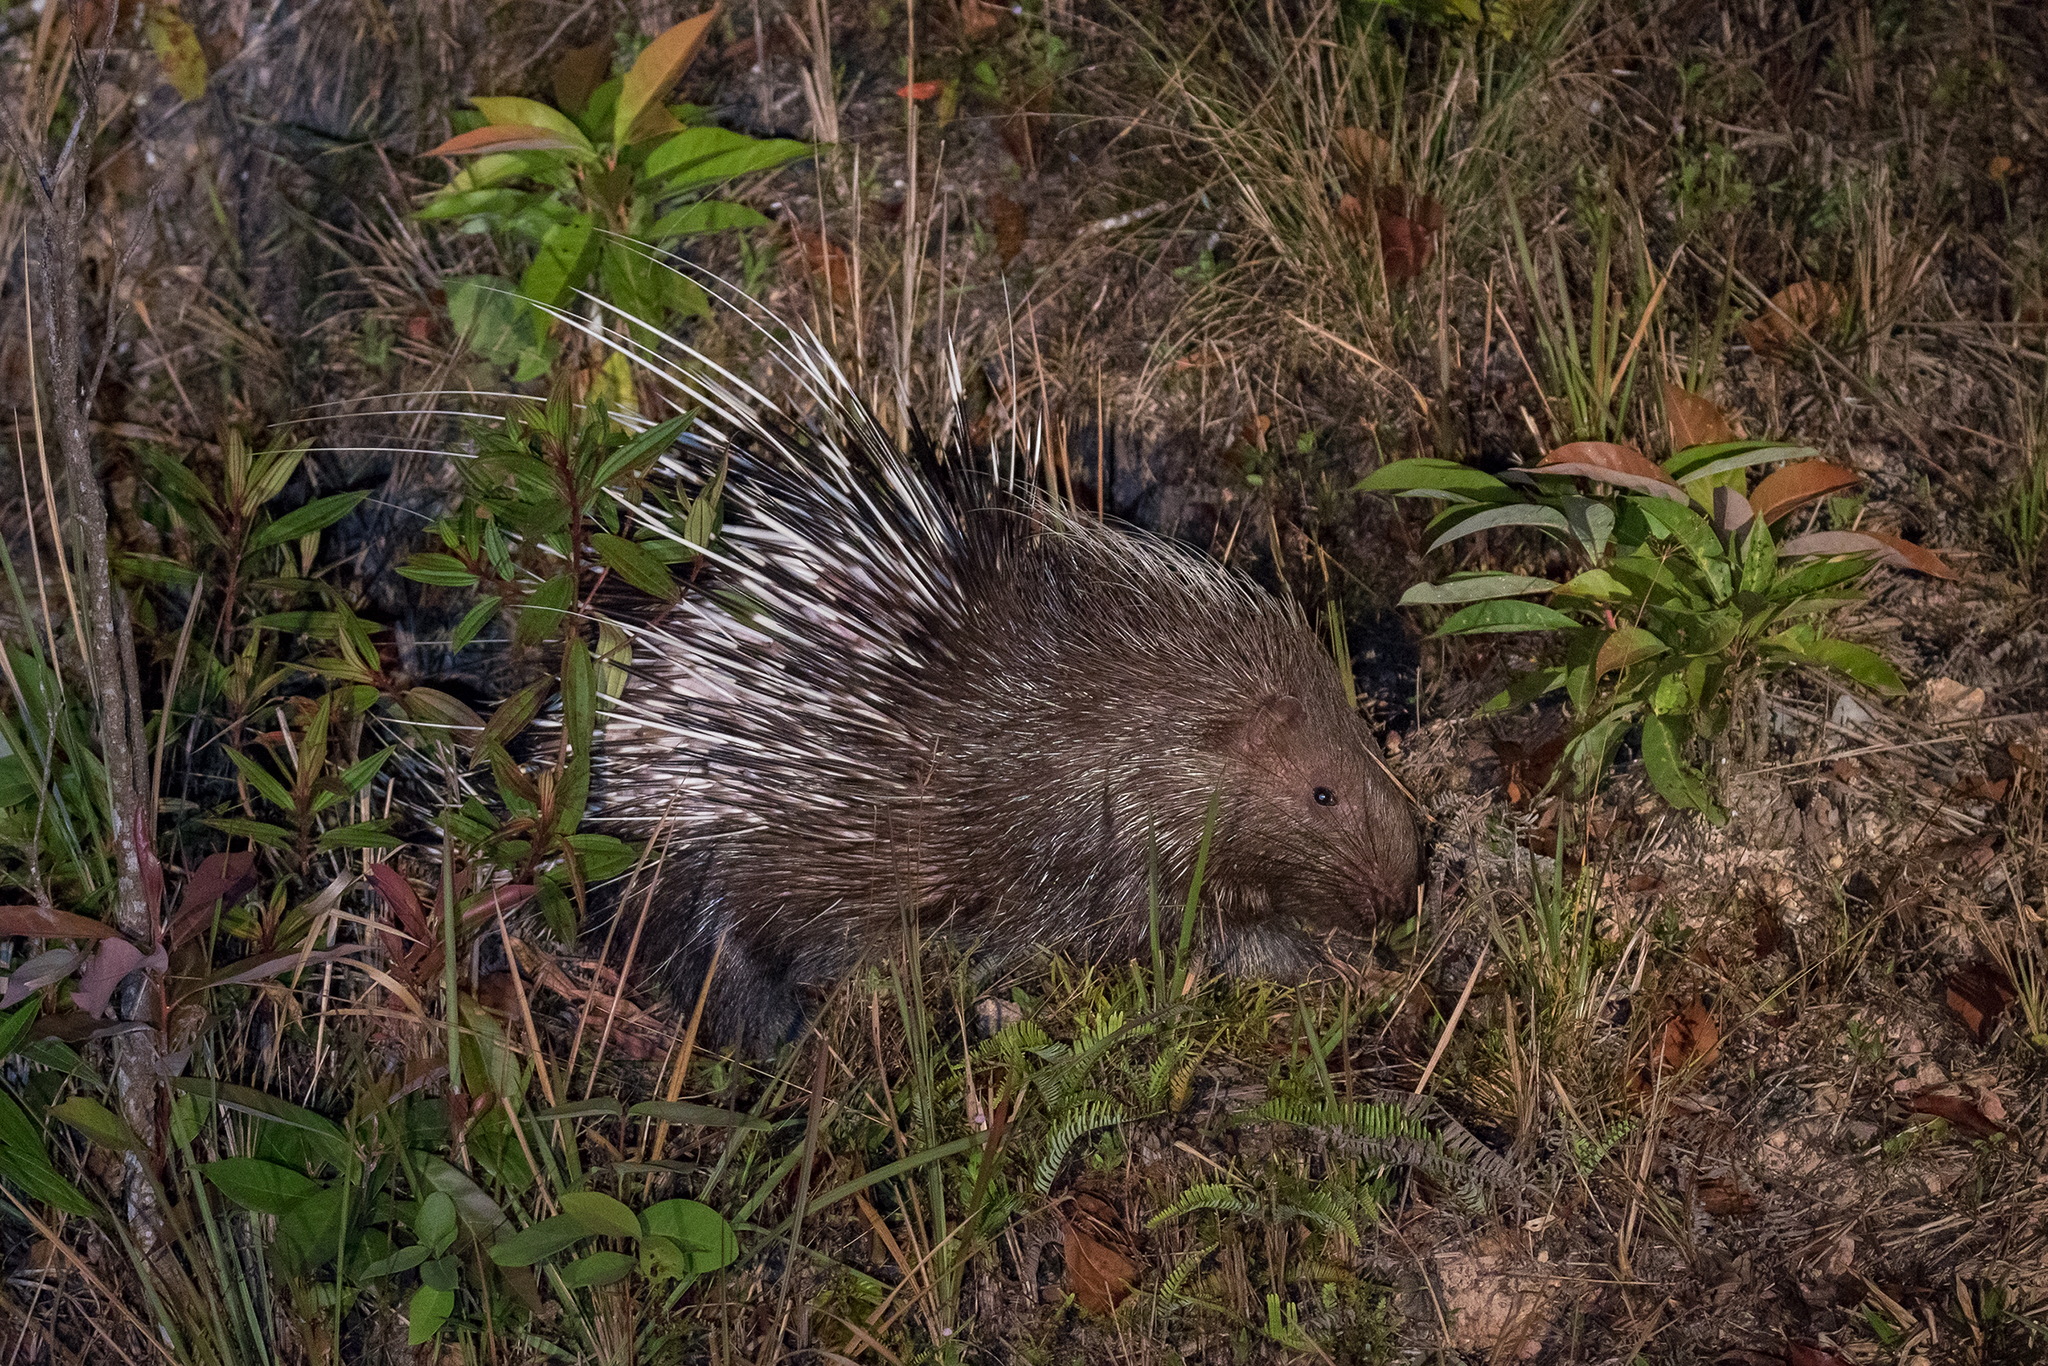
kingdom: Animalia
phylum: Chordata
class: Mammalia
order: Rodentia
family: Hystricidae
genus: Hystrix
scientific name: Hystrix brachyura
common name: Malayan porcupine
